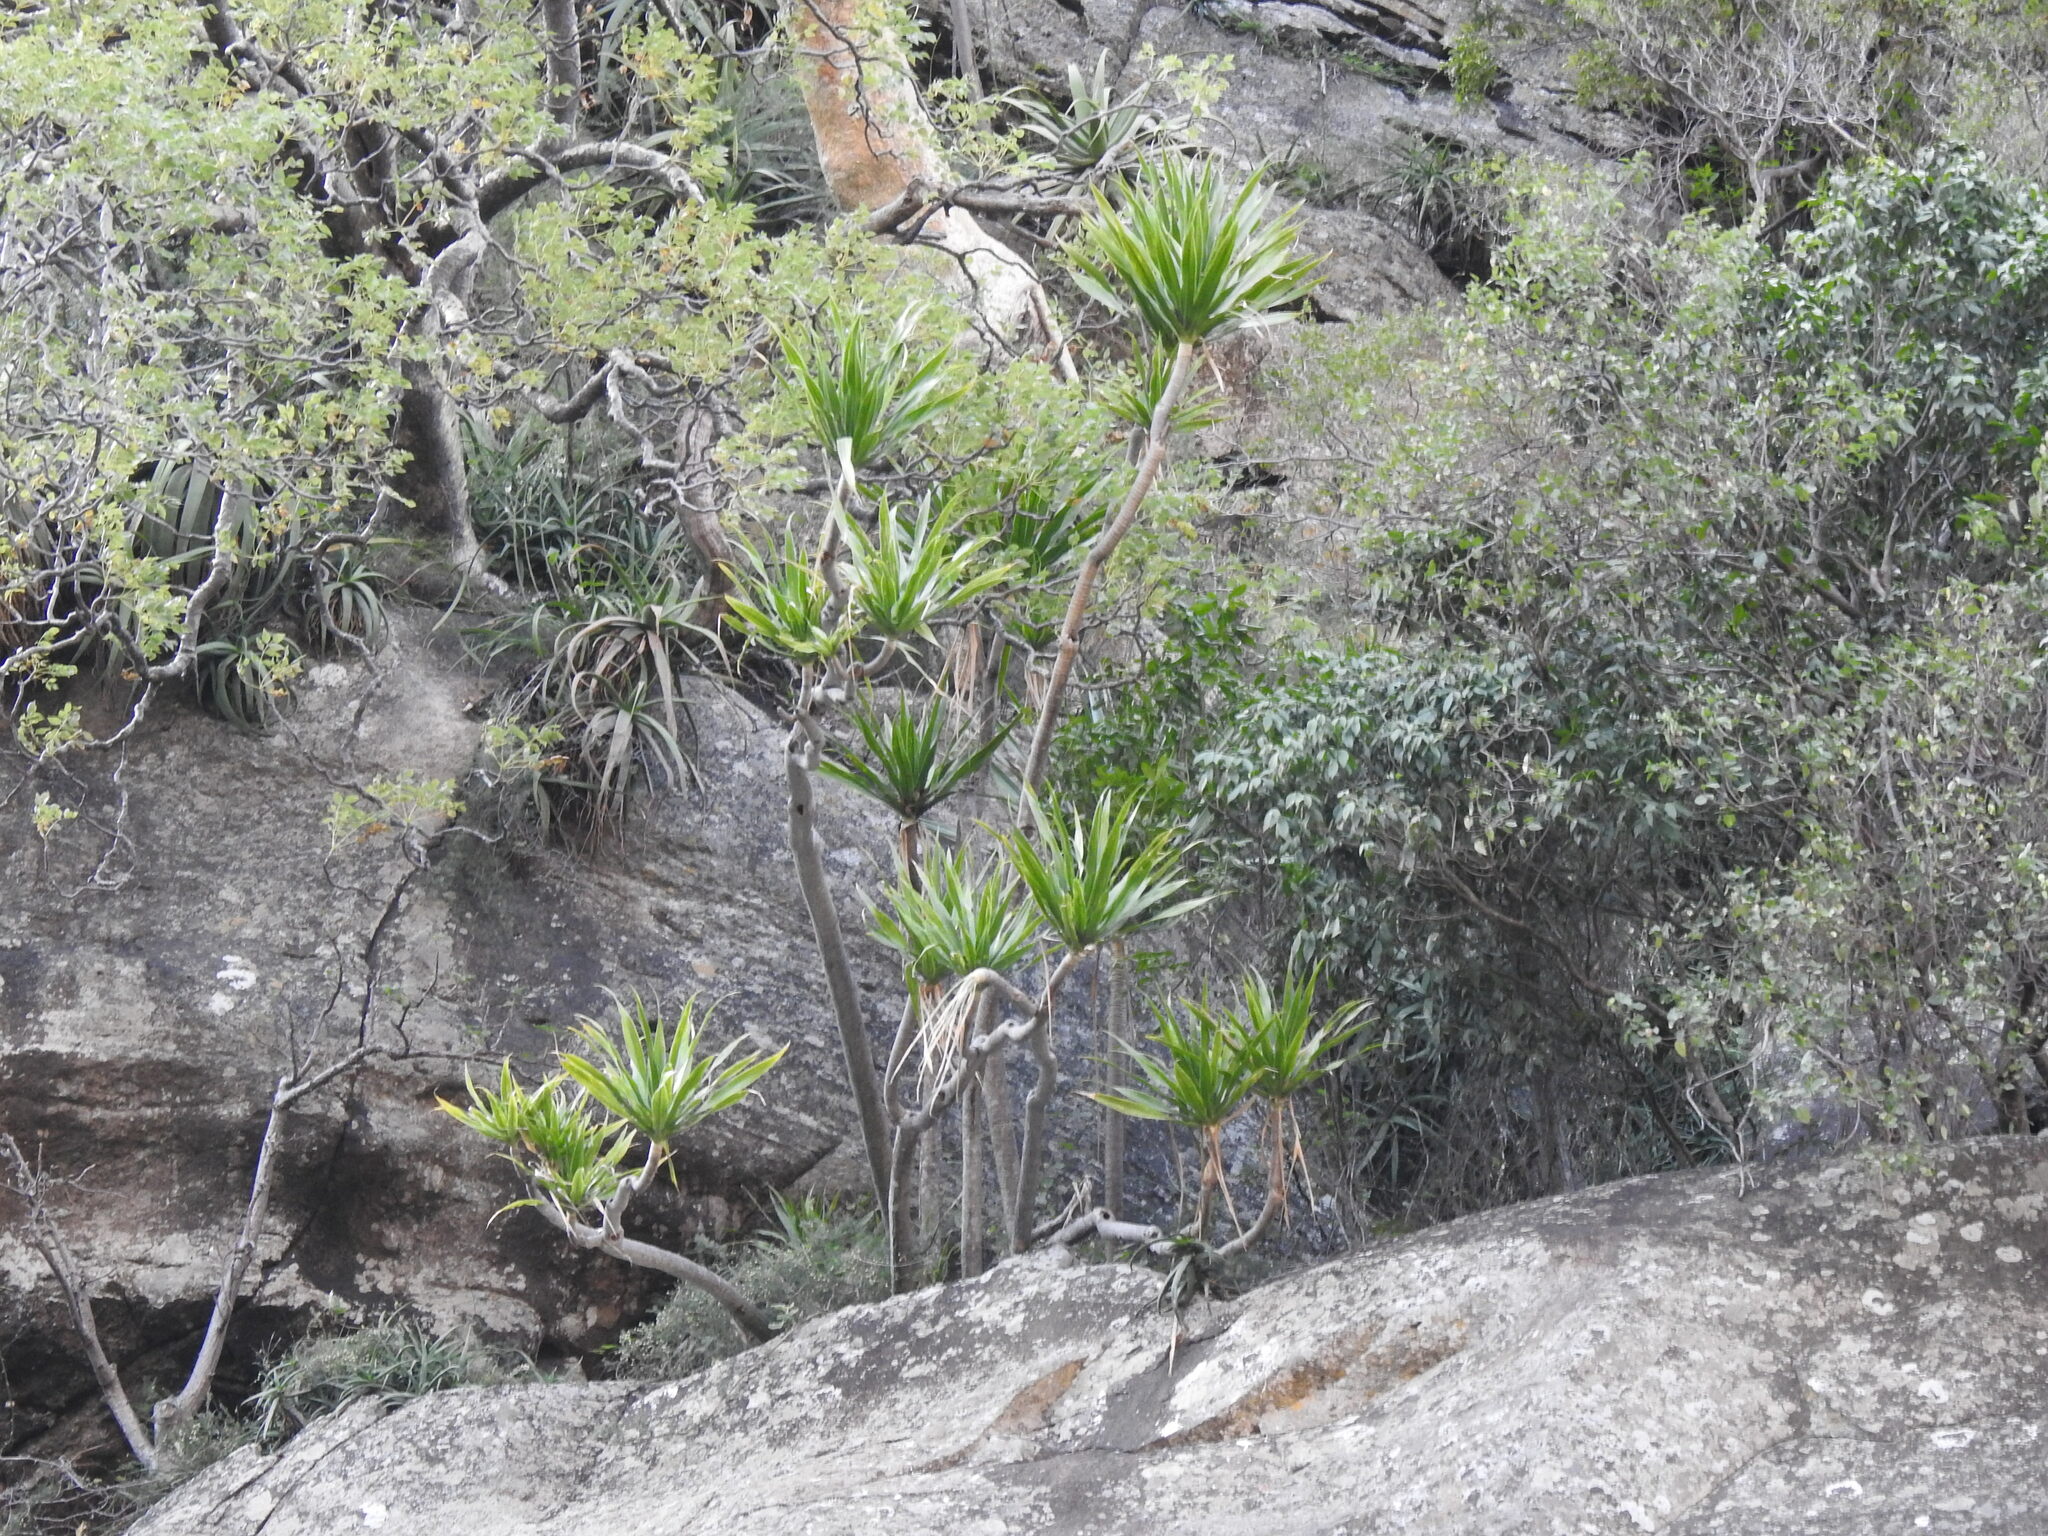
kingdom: Plantae
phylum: Tracheophyta
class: Liliopsida
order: Asparagales
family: Asparagaceae
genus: Dracaena
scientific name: Dracaena transvaalensis
